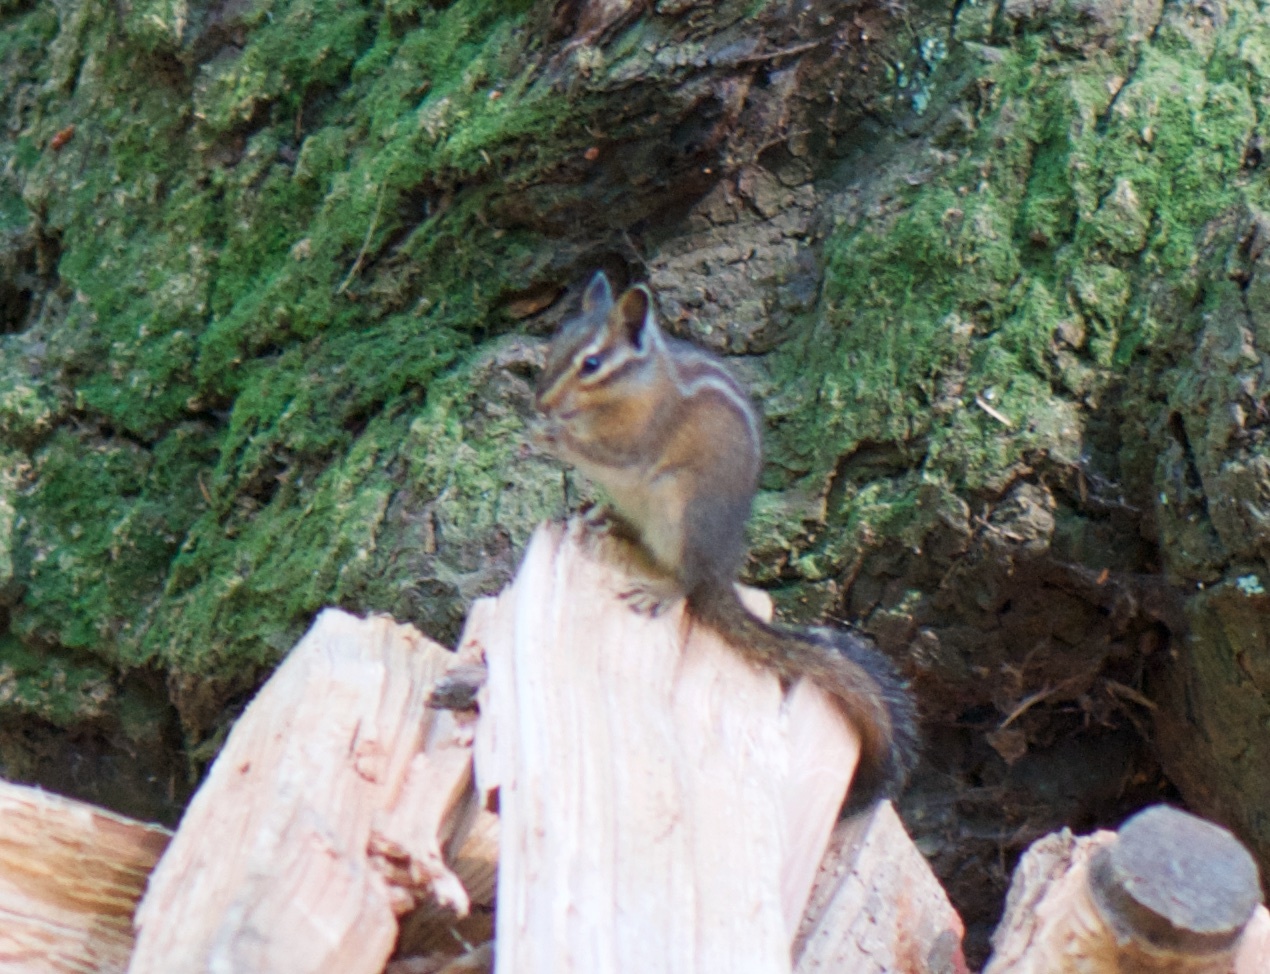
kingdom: Animalia
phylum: Chordata
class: Mammalia
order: Rodentia
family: Sciuridae
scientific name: Sciuridae
